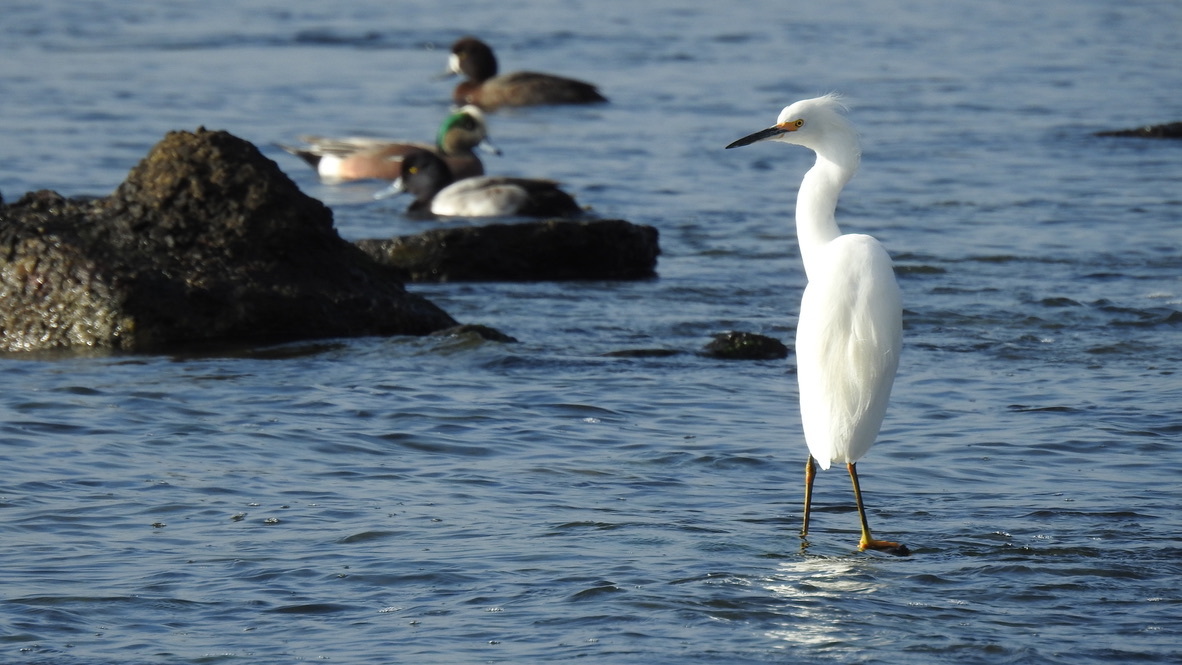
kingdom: Animalia
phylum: Chordata
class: Aves
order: Anseriformes
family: Anatidae
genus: Anas
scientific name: Anas crecca
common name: Eurasian teal
